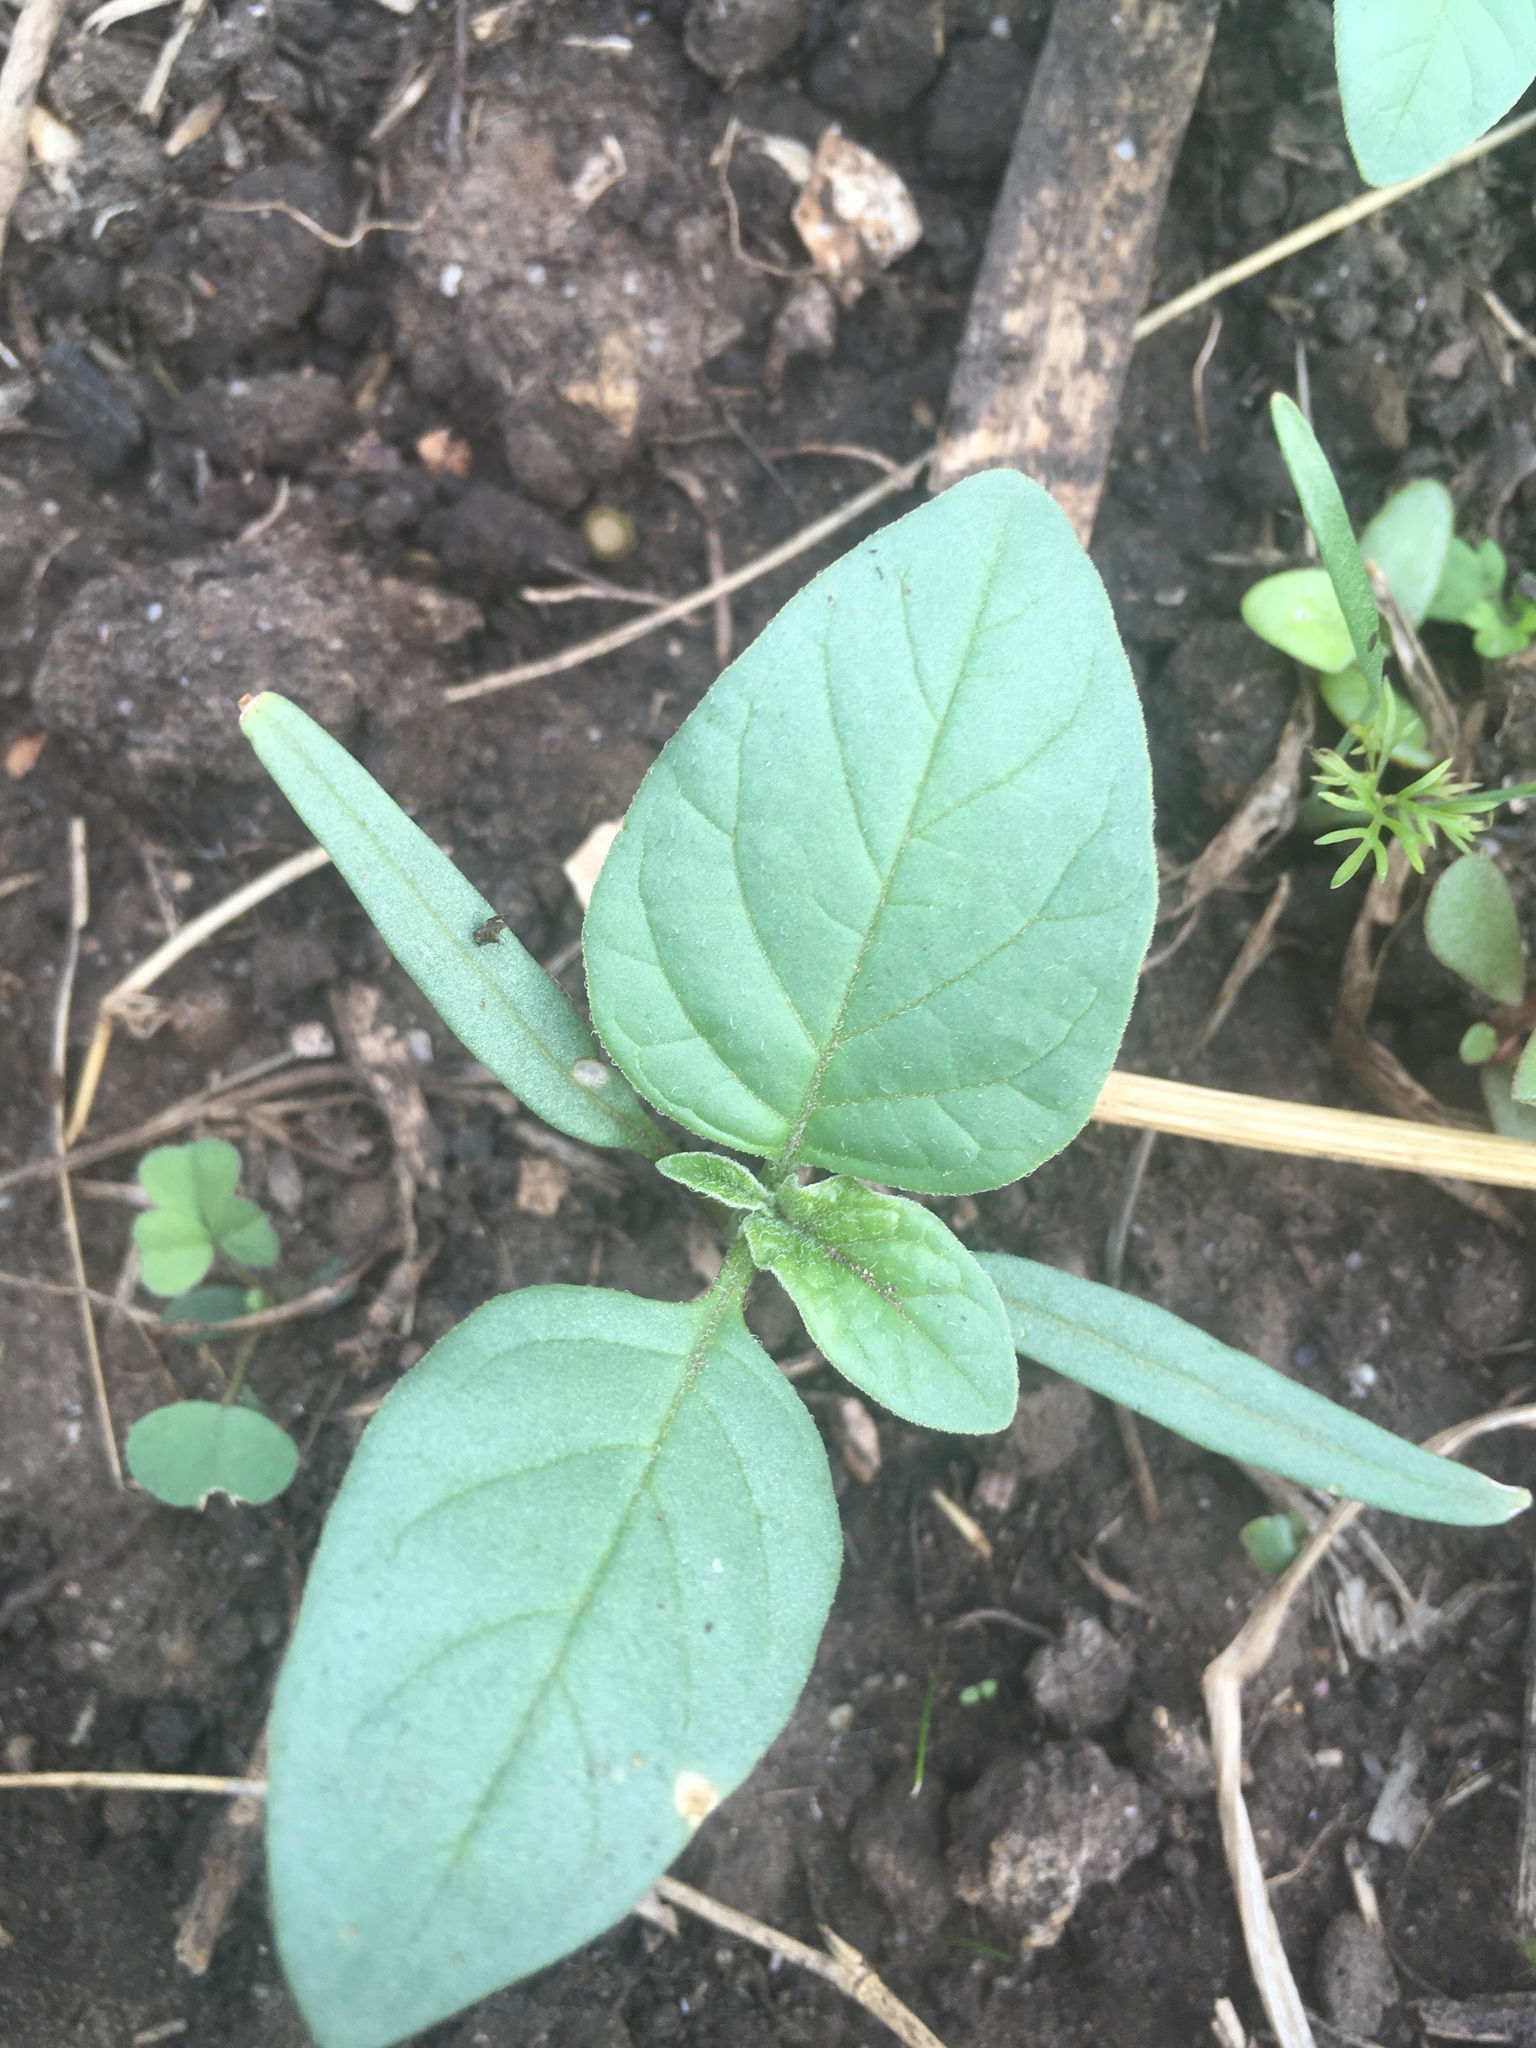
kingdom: Plantae
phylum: Tracheophyta
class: Magnoliopsida
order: Solanales
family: Solanaceae
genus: Datura
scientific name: Datura ferox
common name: Angel's-trumpets
